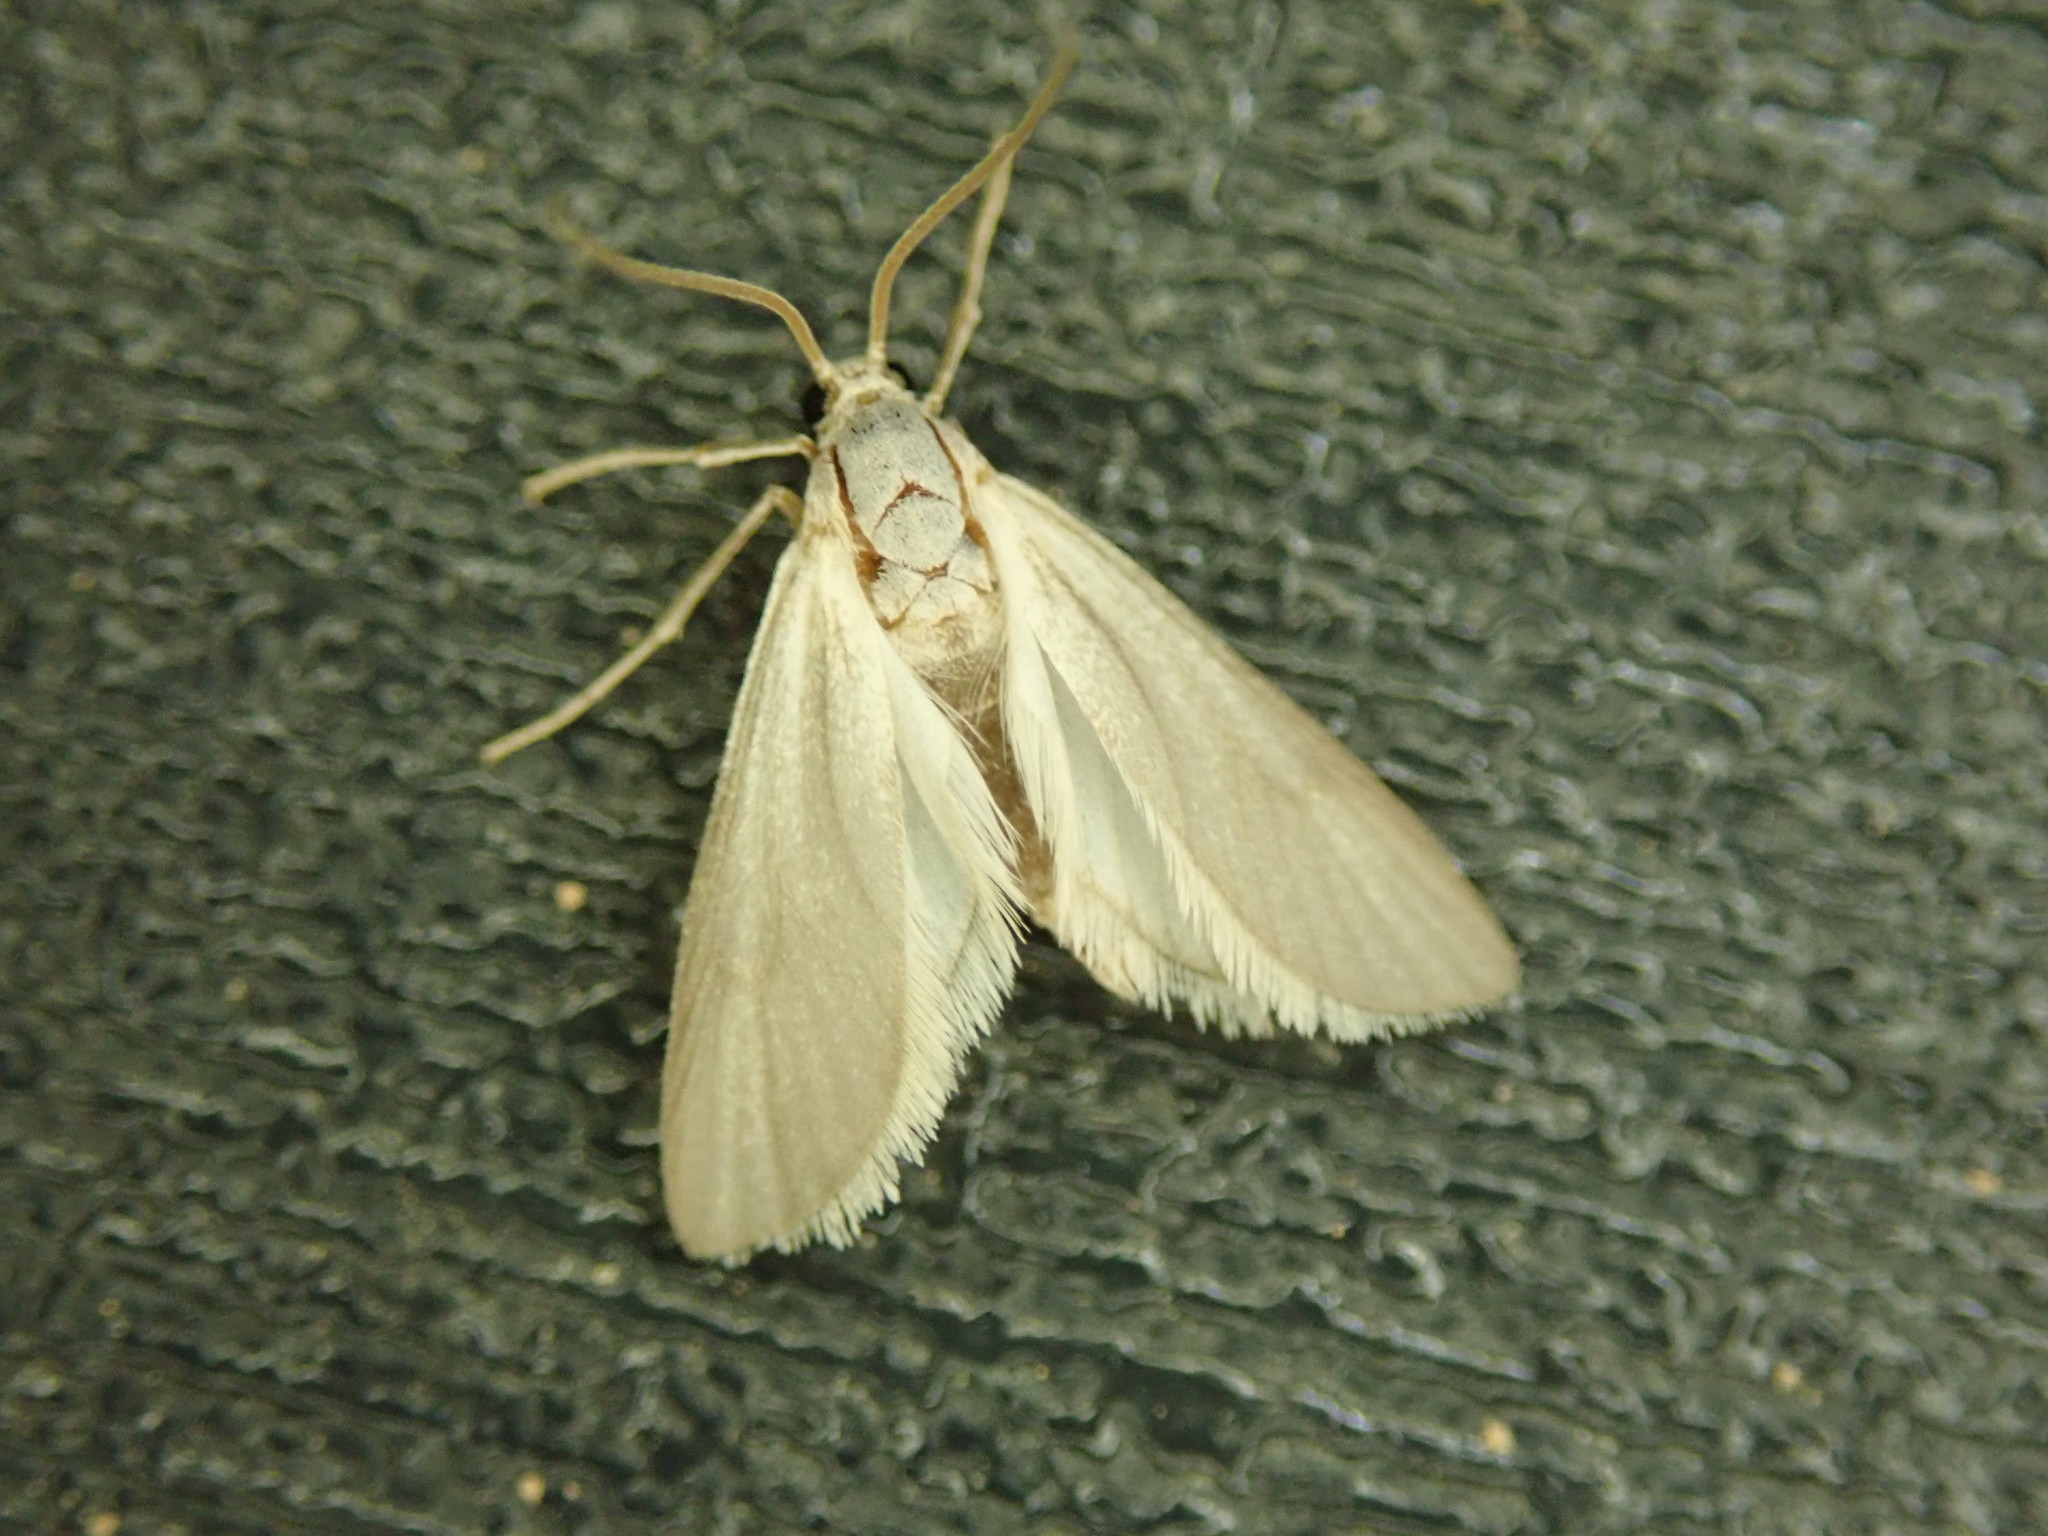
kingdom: Animalia
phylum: Arthropoda
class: Insecta
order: Lepidoptera
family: Crambidae
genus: Acentria
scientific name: Acentria ephemerella
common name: European water moth
